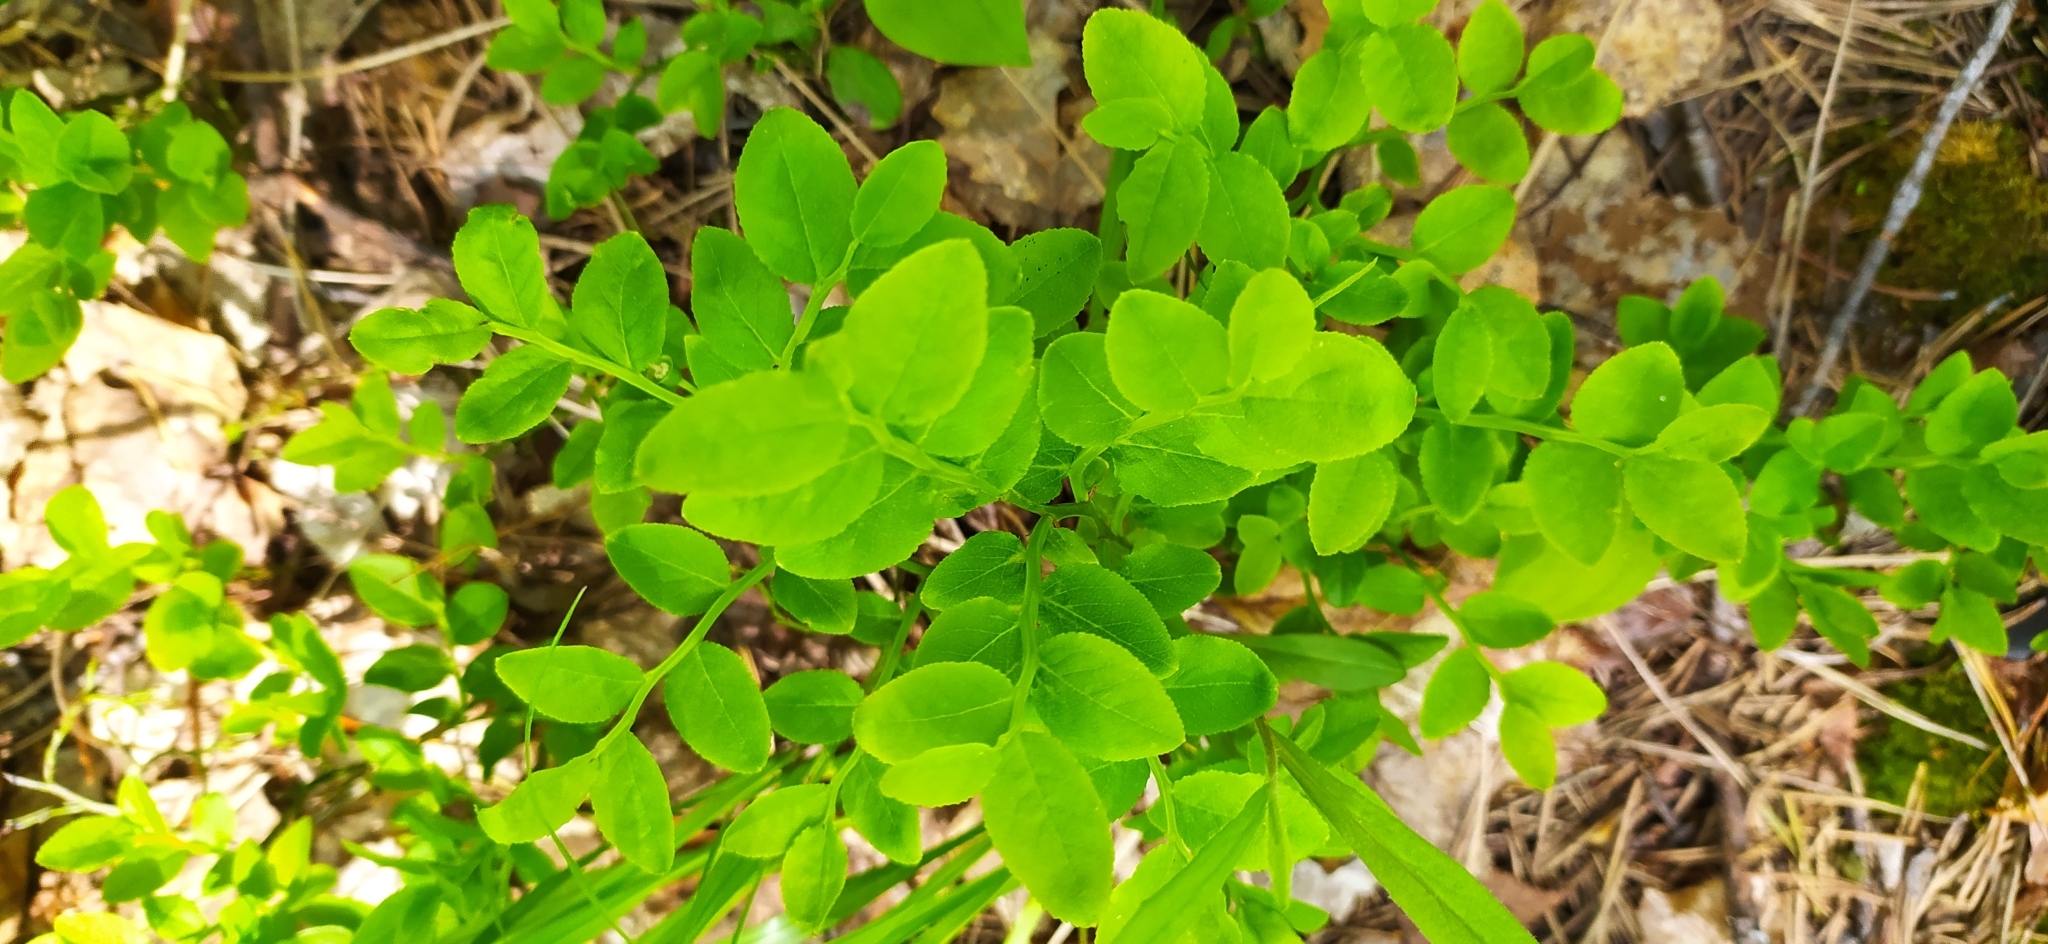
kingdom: Plantae
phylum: Tracheophyta
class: Magnoliopsida
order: Ericales
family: Ericaceae
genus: Vaccinium
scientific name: Vaccinium myrtillus
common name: Bilberry
